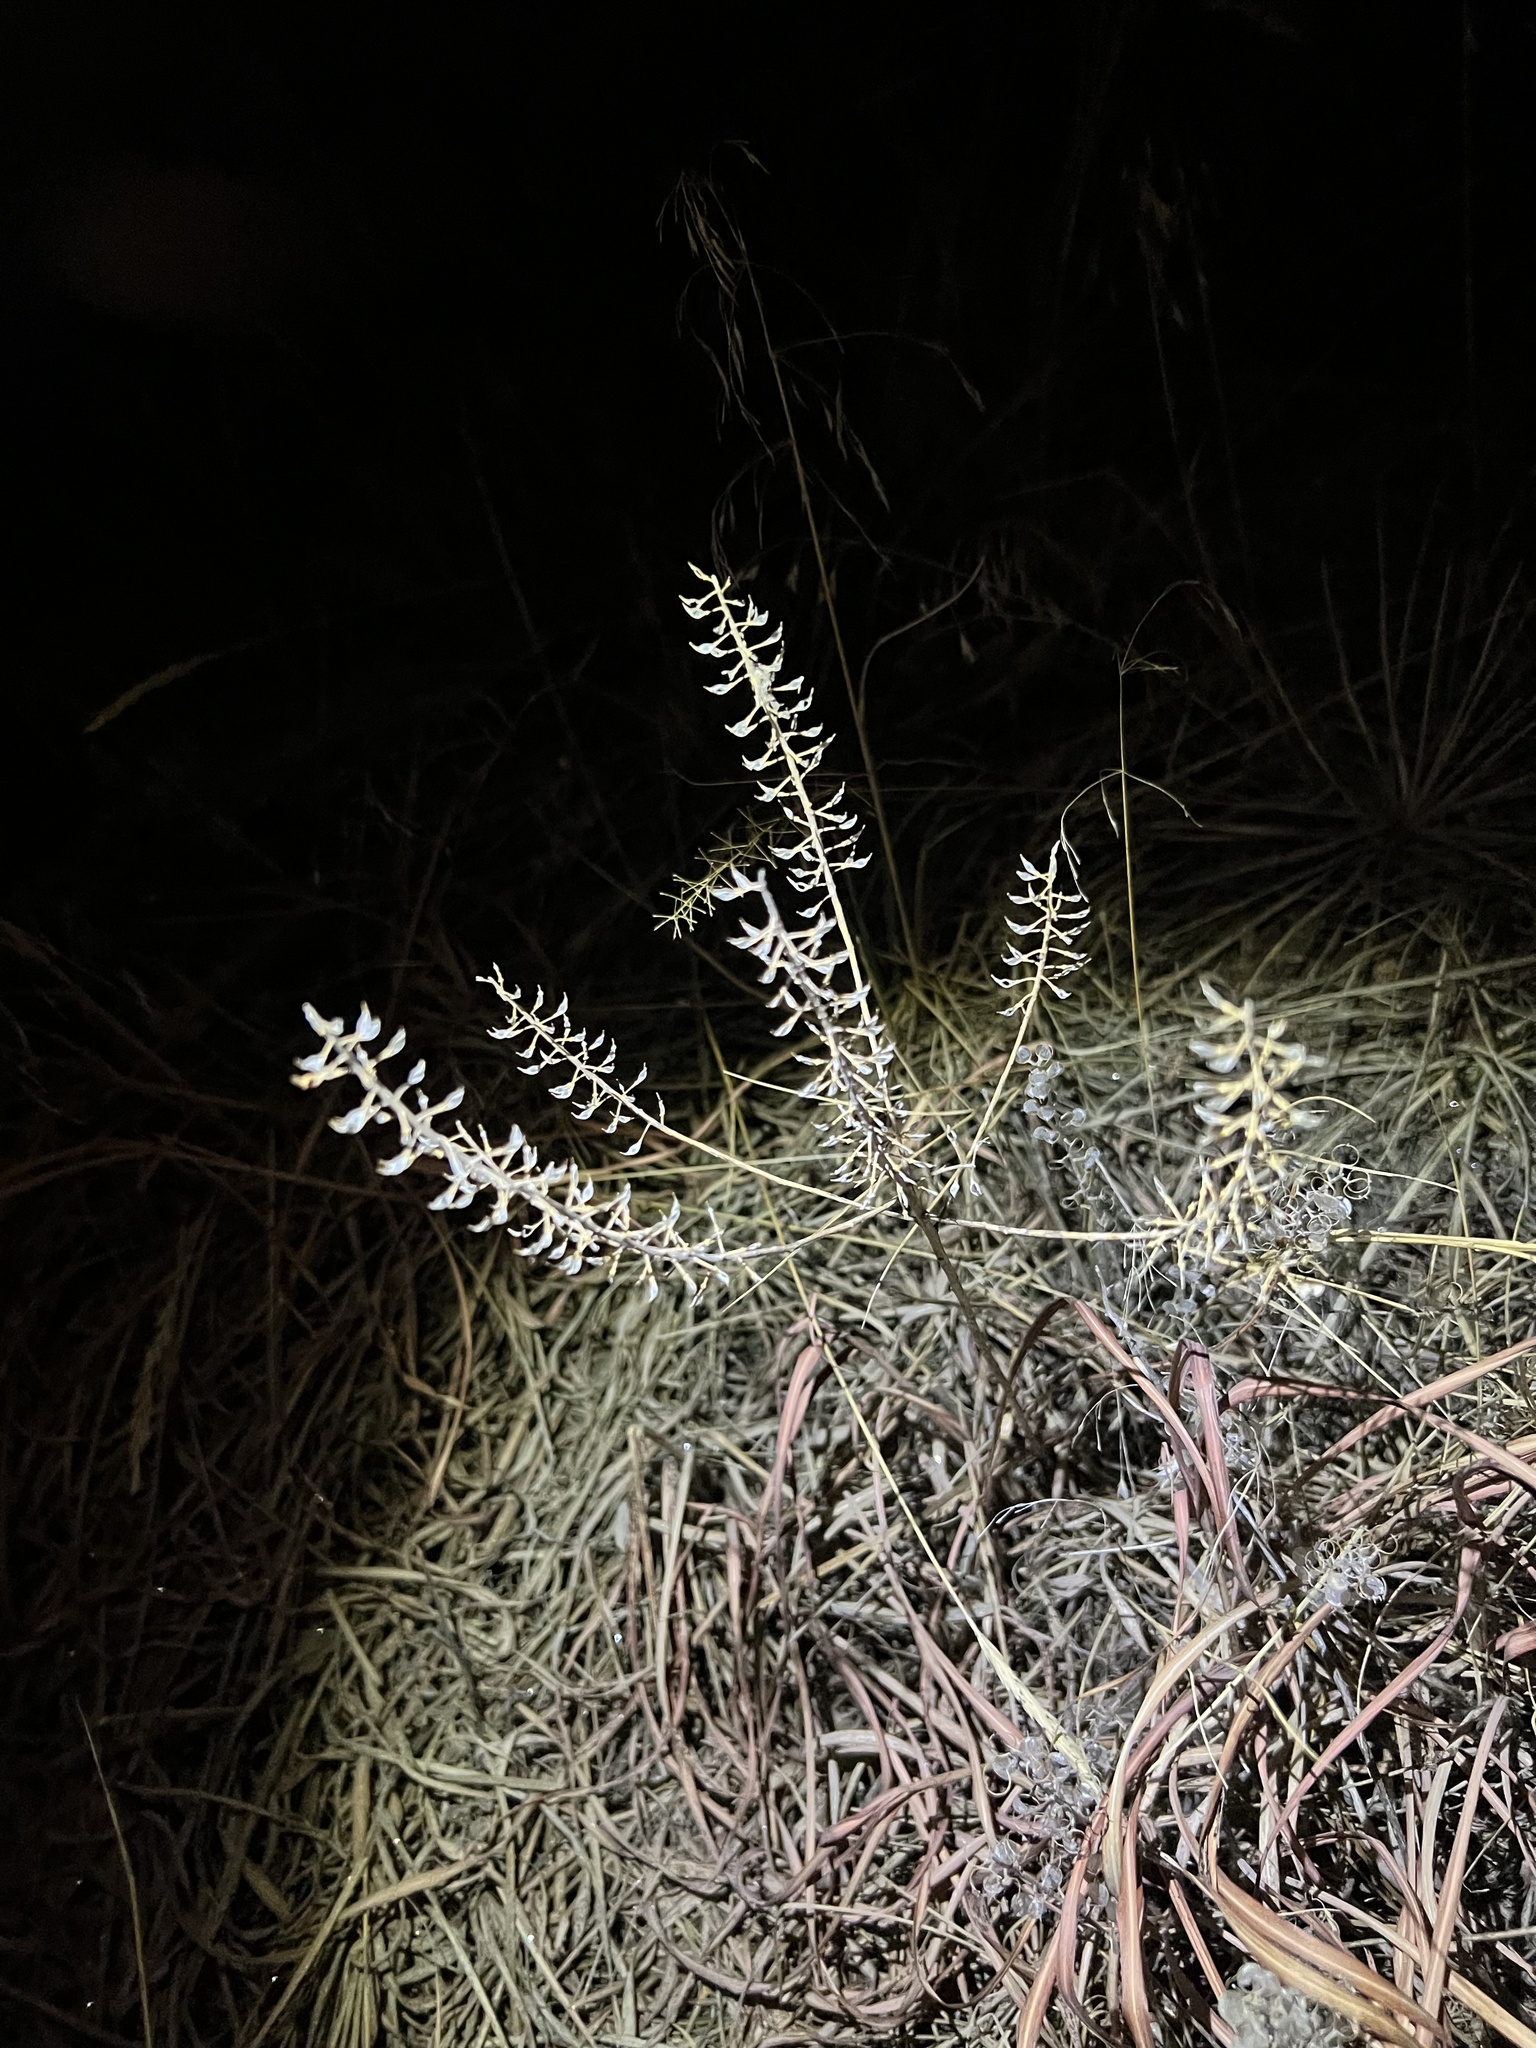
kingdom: Plantae
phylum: Tracheophyta
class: Magnoliopsida
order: Brassicales
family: Brassicaceae
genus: Lepidium
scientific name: Lepidium campestre
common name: Field pepperwort
